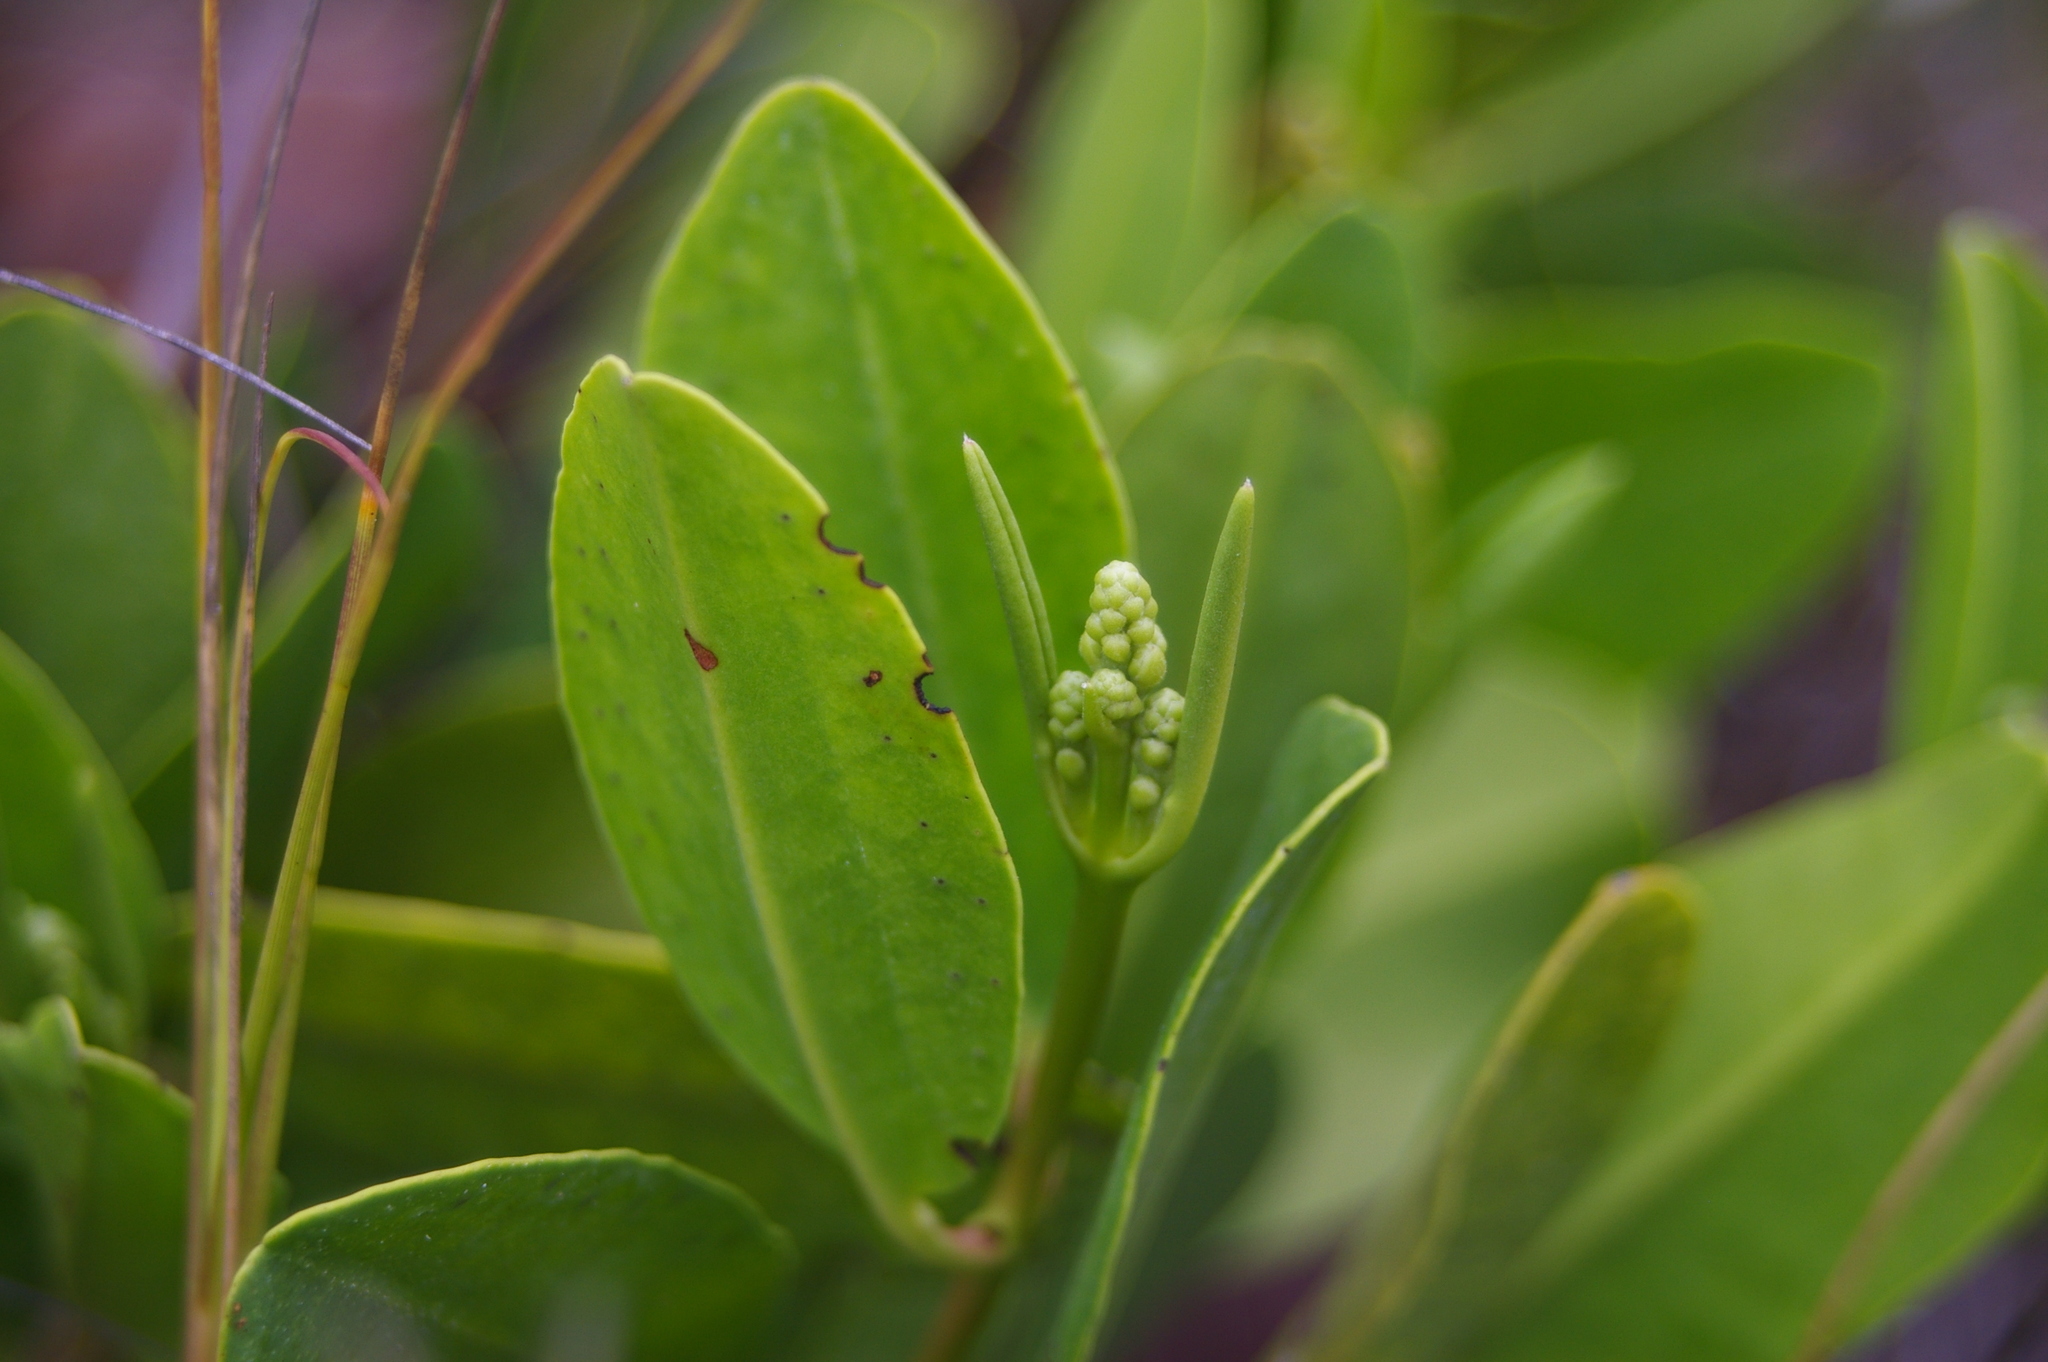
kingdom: Plantae
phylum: Tracheophyta
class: Magnoliopsida
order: Myrtales
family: Combretaceae
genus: Laguncularia
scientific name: Laguncularia racemosa
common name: White mangrove
